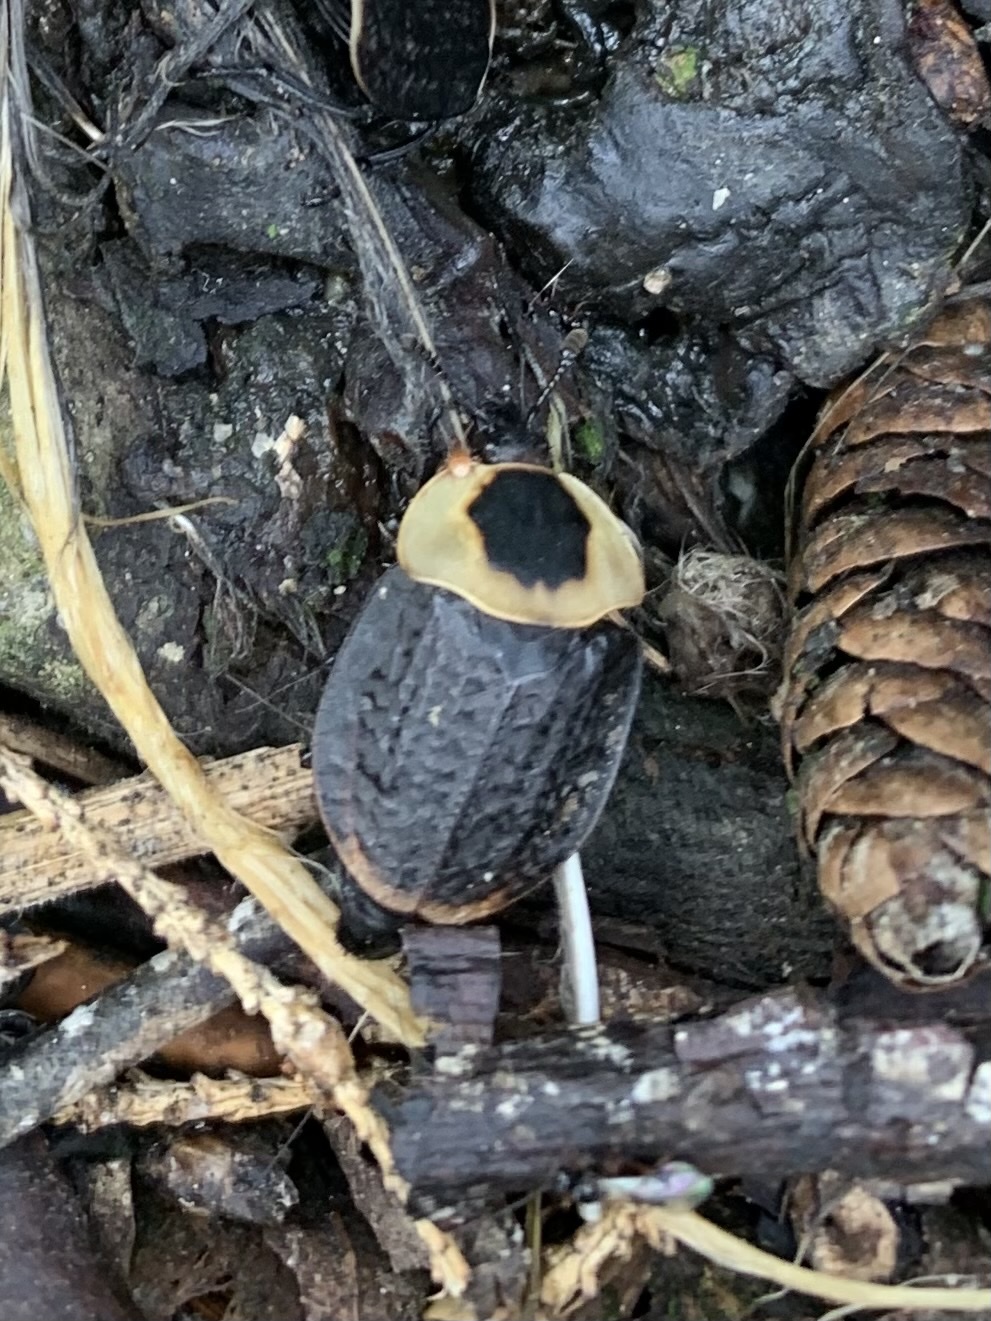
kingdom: Animalia
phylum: Arthropoda
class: Insecta
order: Coleoptera
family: Staphylinidae
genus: Necrophila
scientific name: Necrophila americana
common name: American carrion beetle
